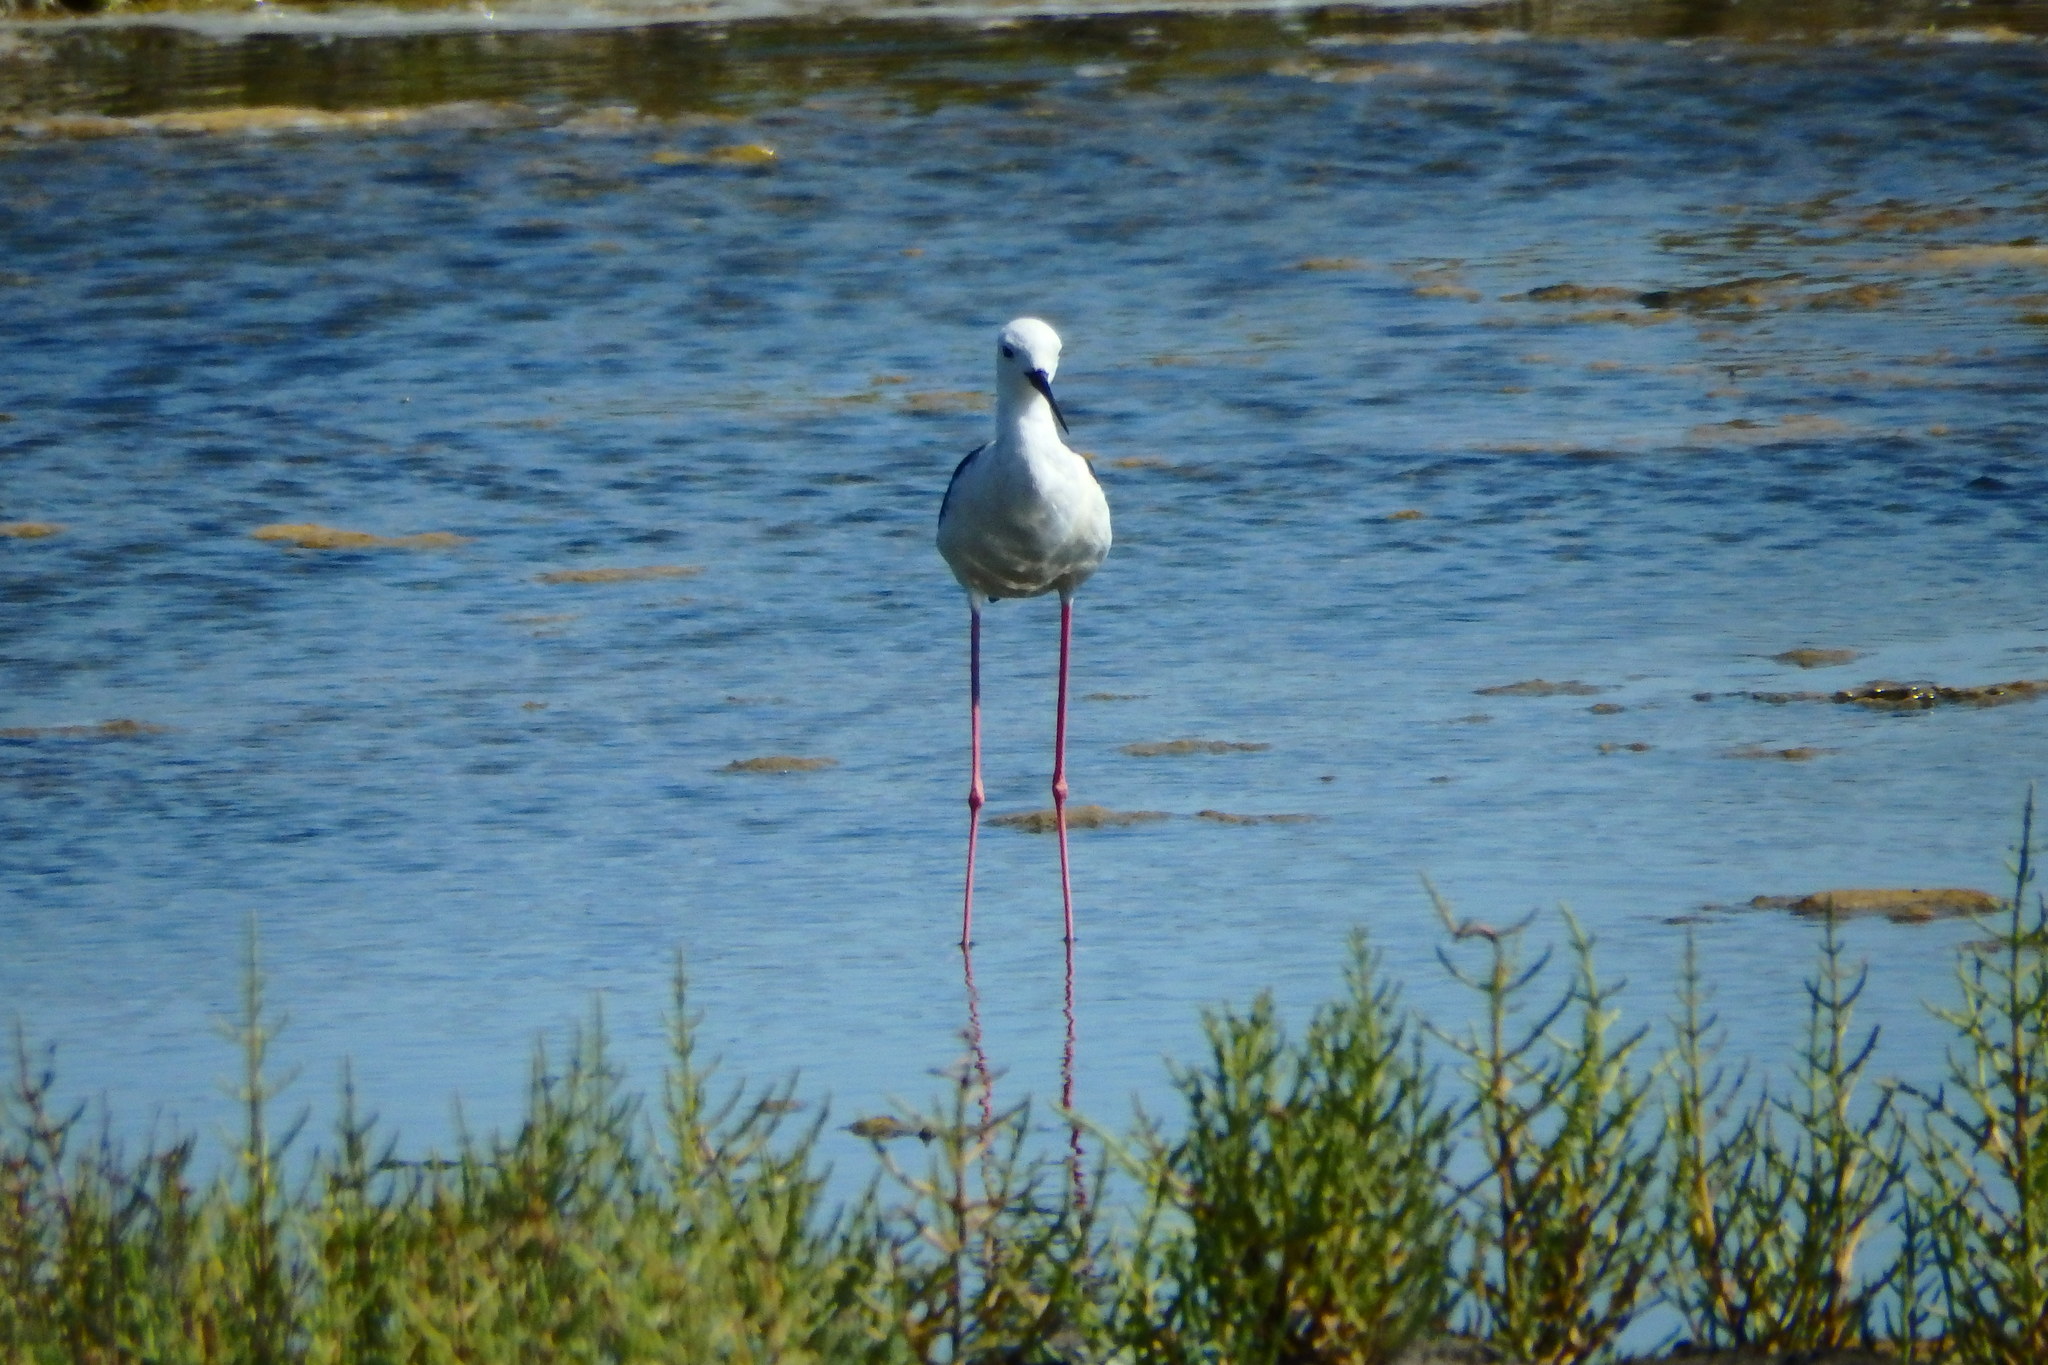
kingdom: Animalia
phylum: Chordata
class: Aves
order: Charadriiformes
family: Recurvirostridae
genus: Himantopus
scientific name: Himantopus himantopus
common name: Black-winged stilt
